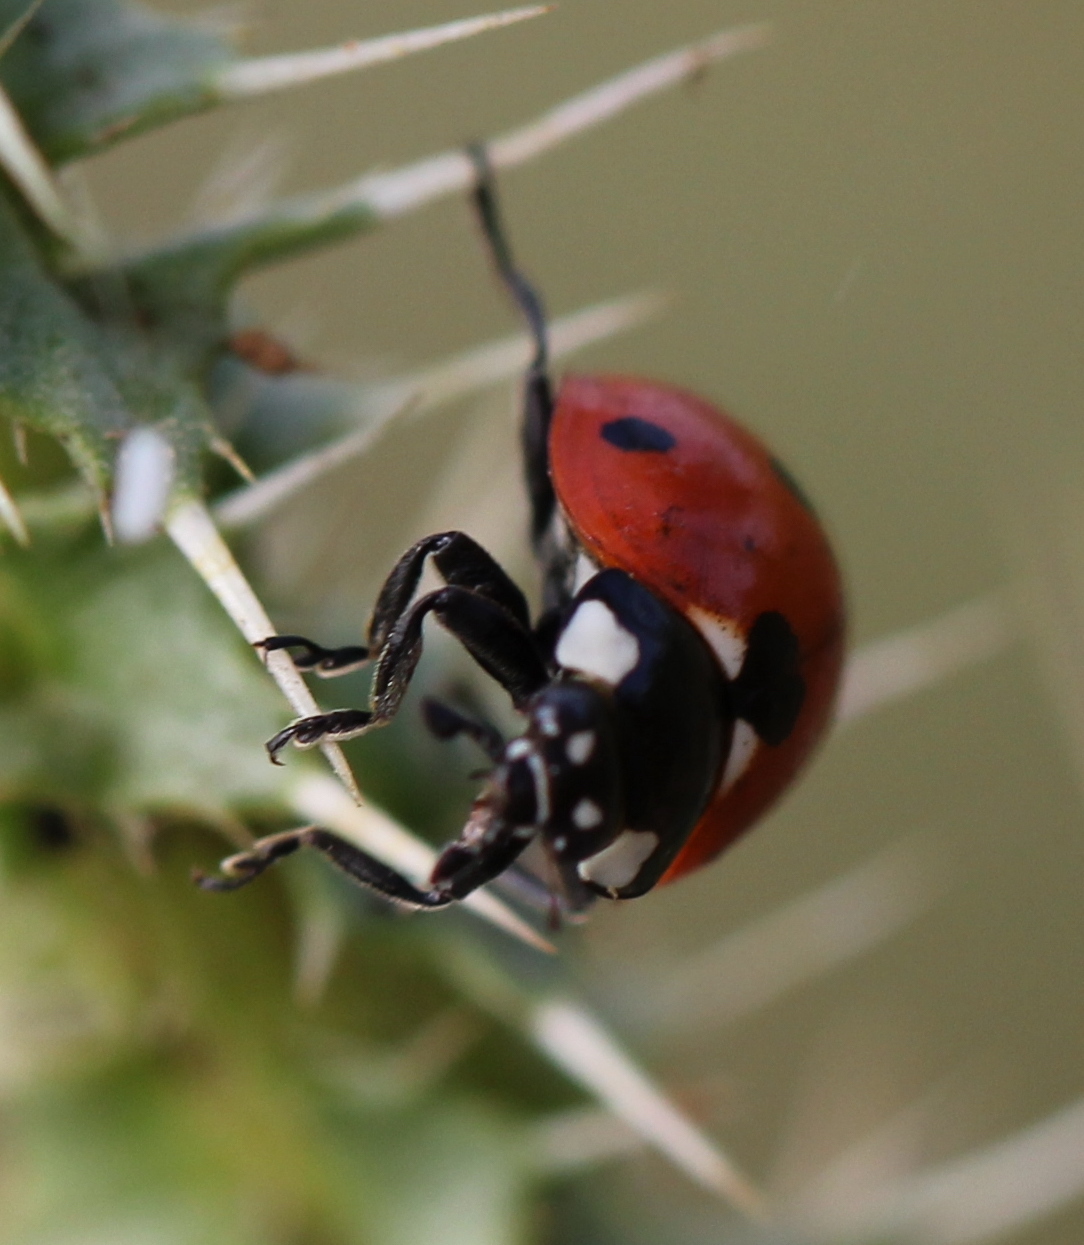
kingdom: Animalia
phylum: Arthropoda
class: Insecta
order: Coleoptera
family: Coccinellidae
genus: Coccinella
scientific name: Coccinella septempunctata
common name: Sevenspotted lady beetle
